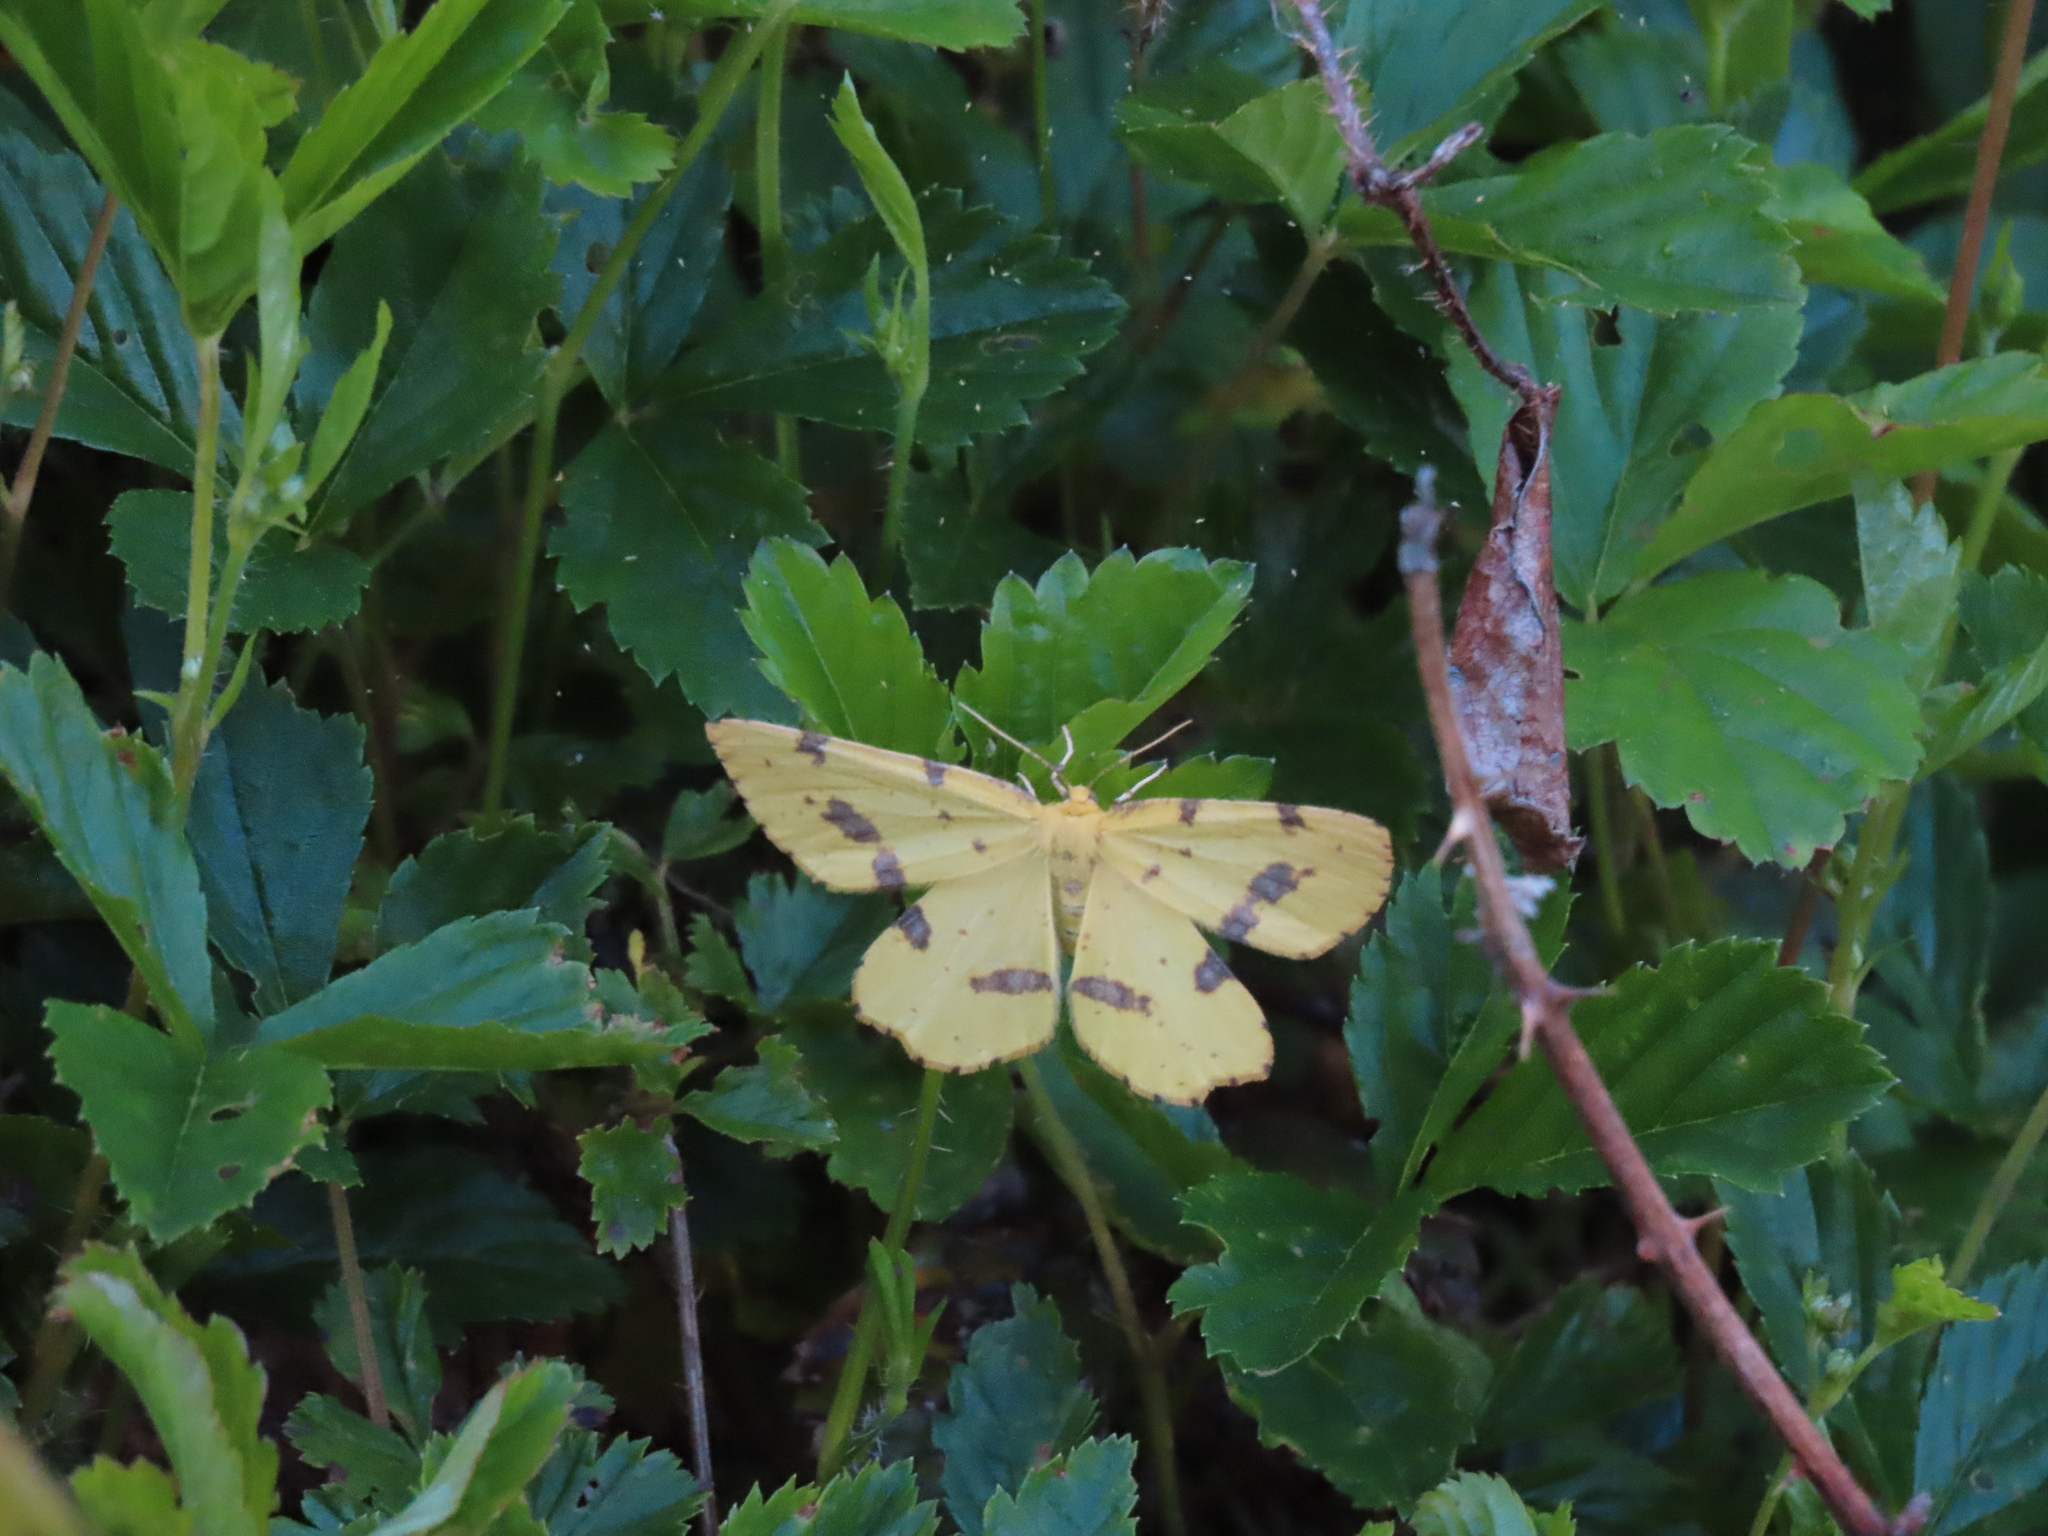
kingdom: Animalia
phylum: Arthropoda
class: Insecta
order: Lepidoptera
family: Geometridae
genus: Xanthotype
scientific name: Xanthotype
